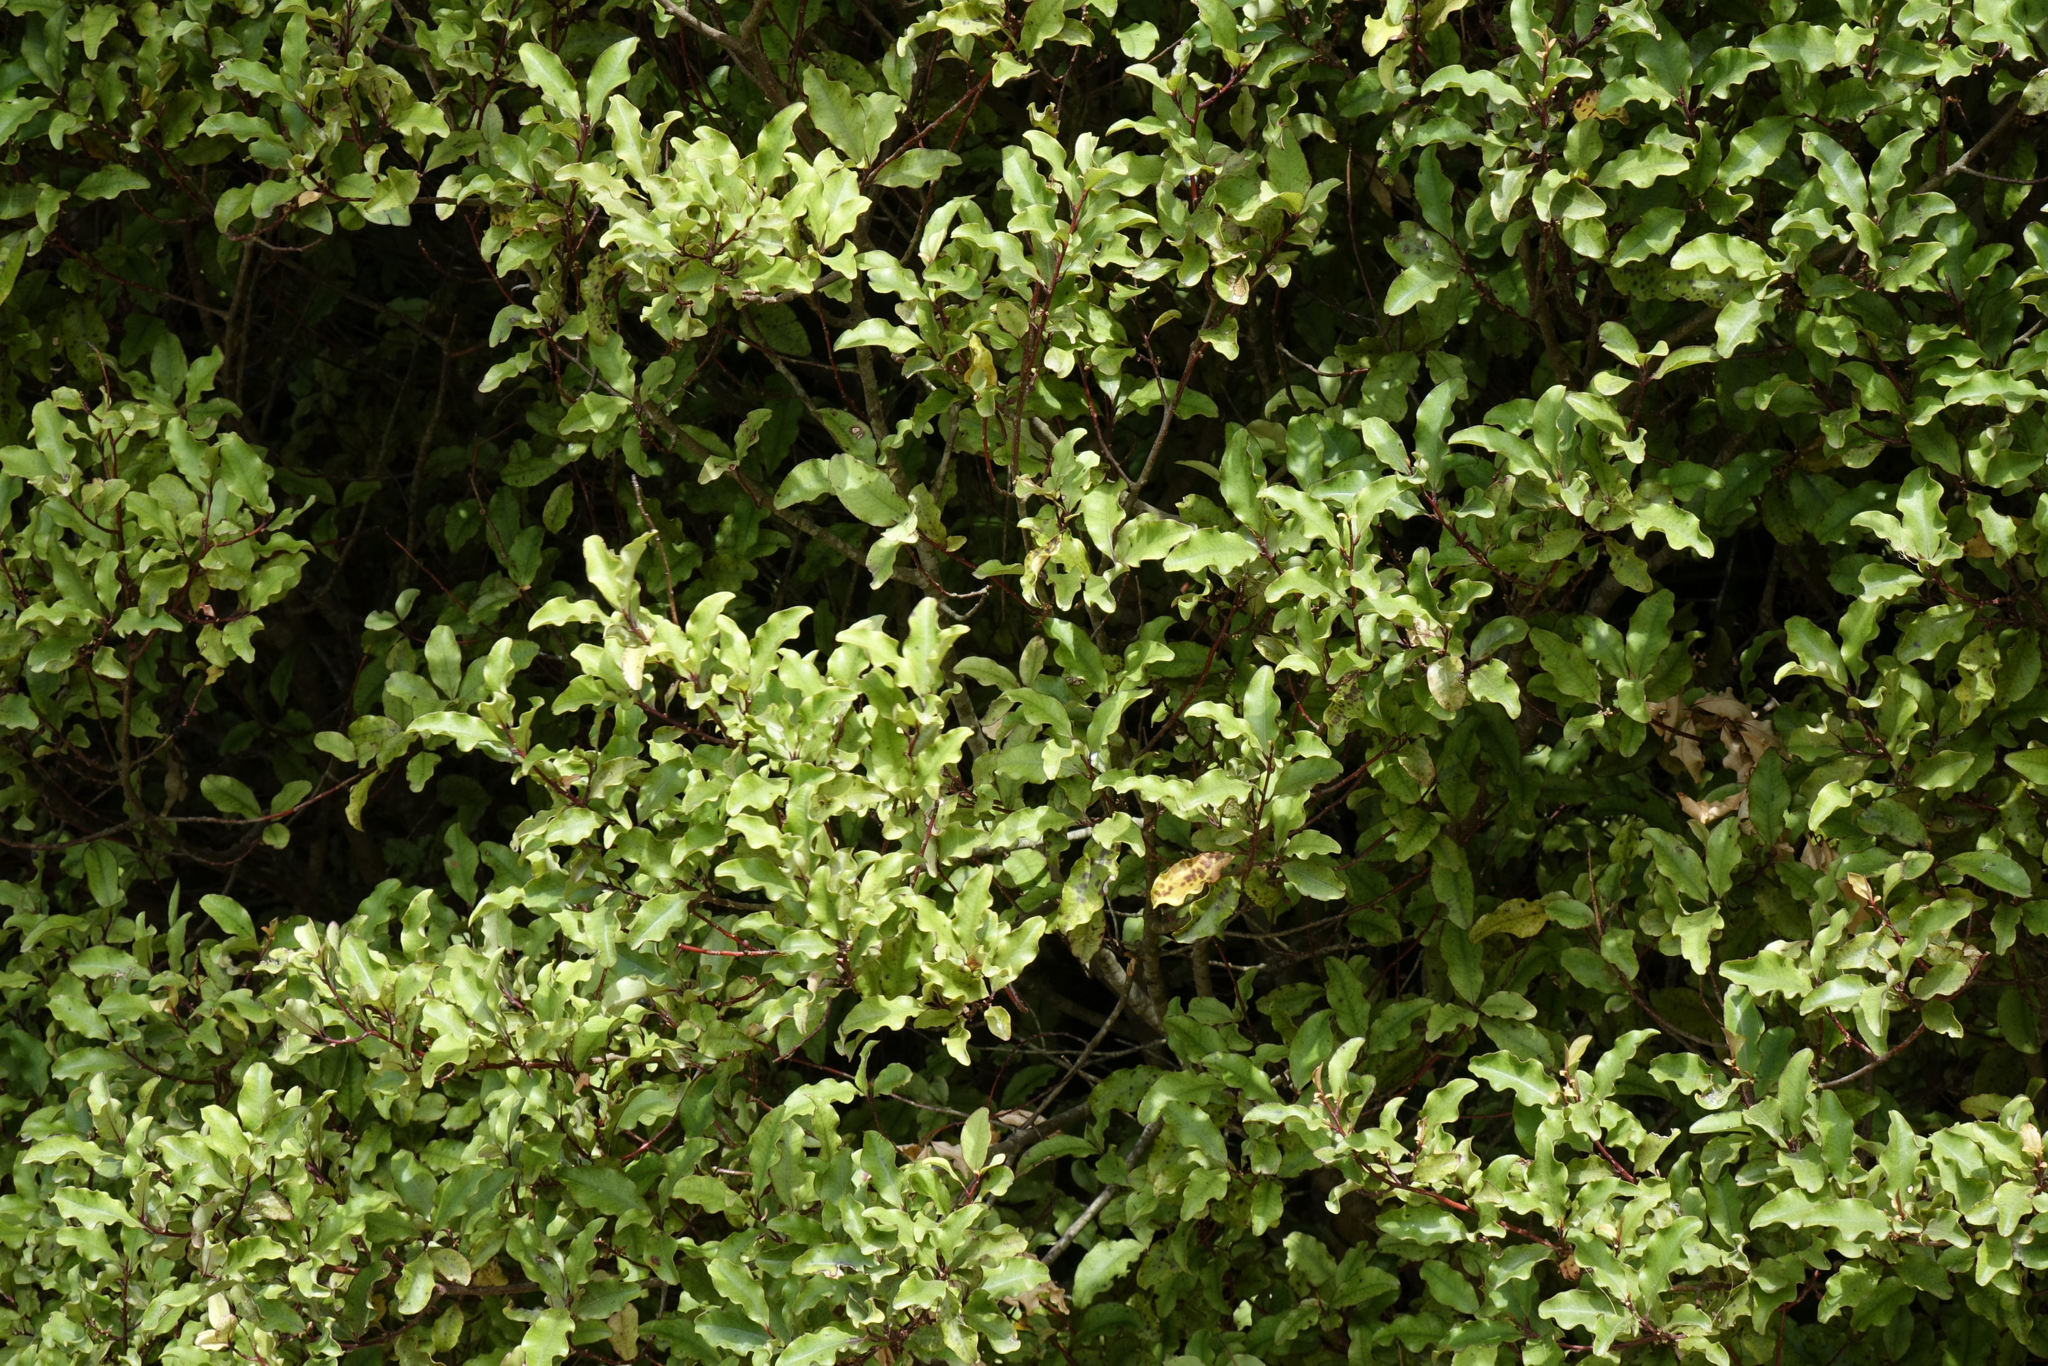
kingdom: Plantae
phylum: Tracheophyta
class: Magnoliopsida
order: Ericales
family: Primulaceae
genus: Myrsine
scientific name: Myrsine australis
